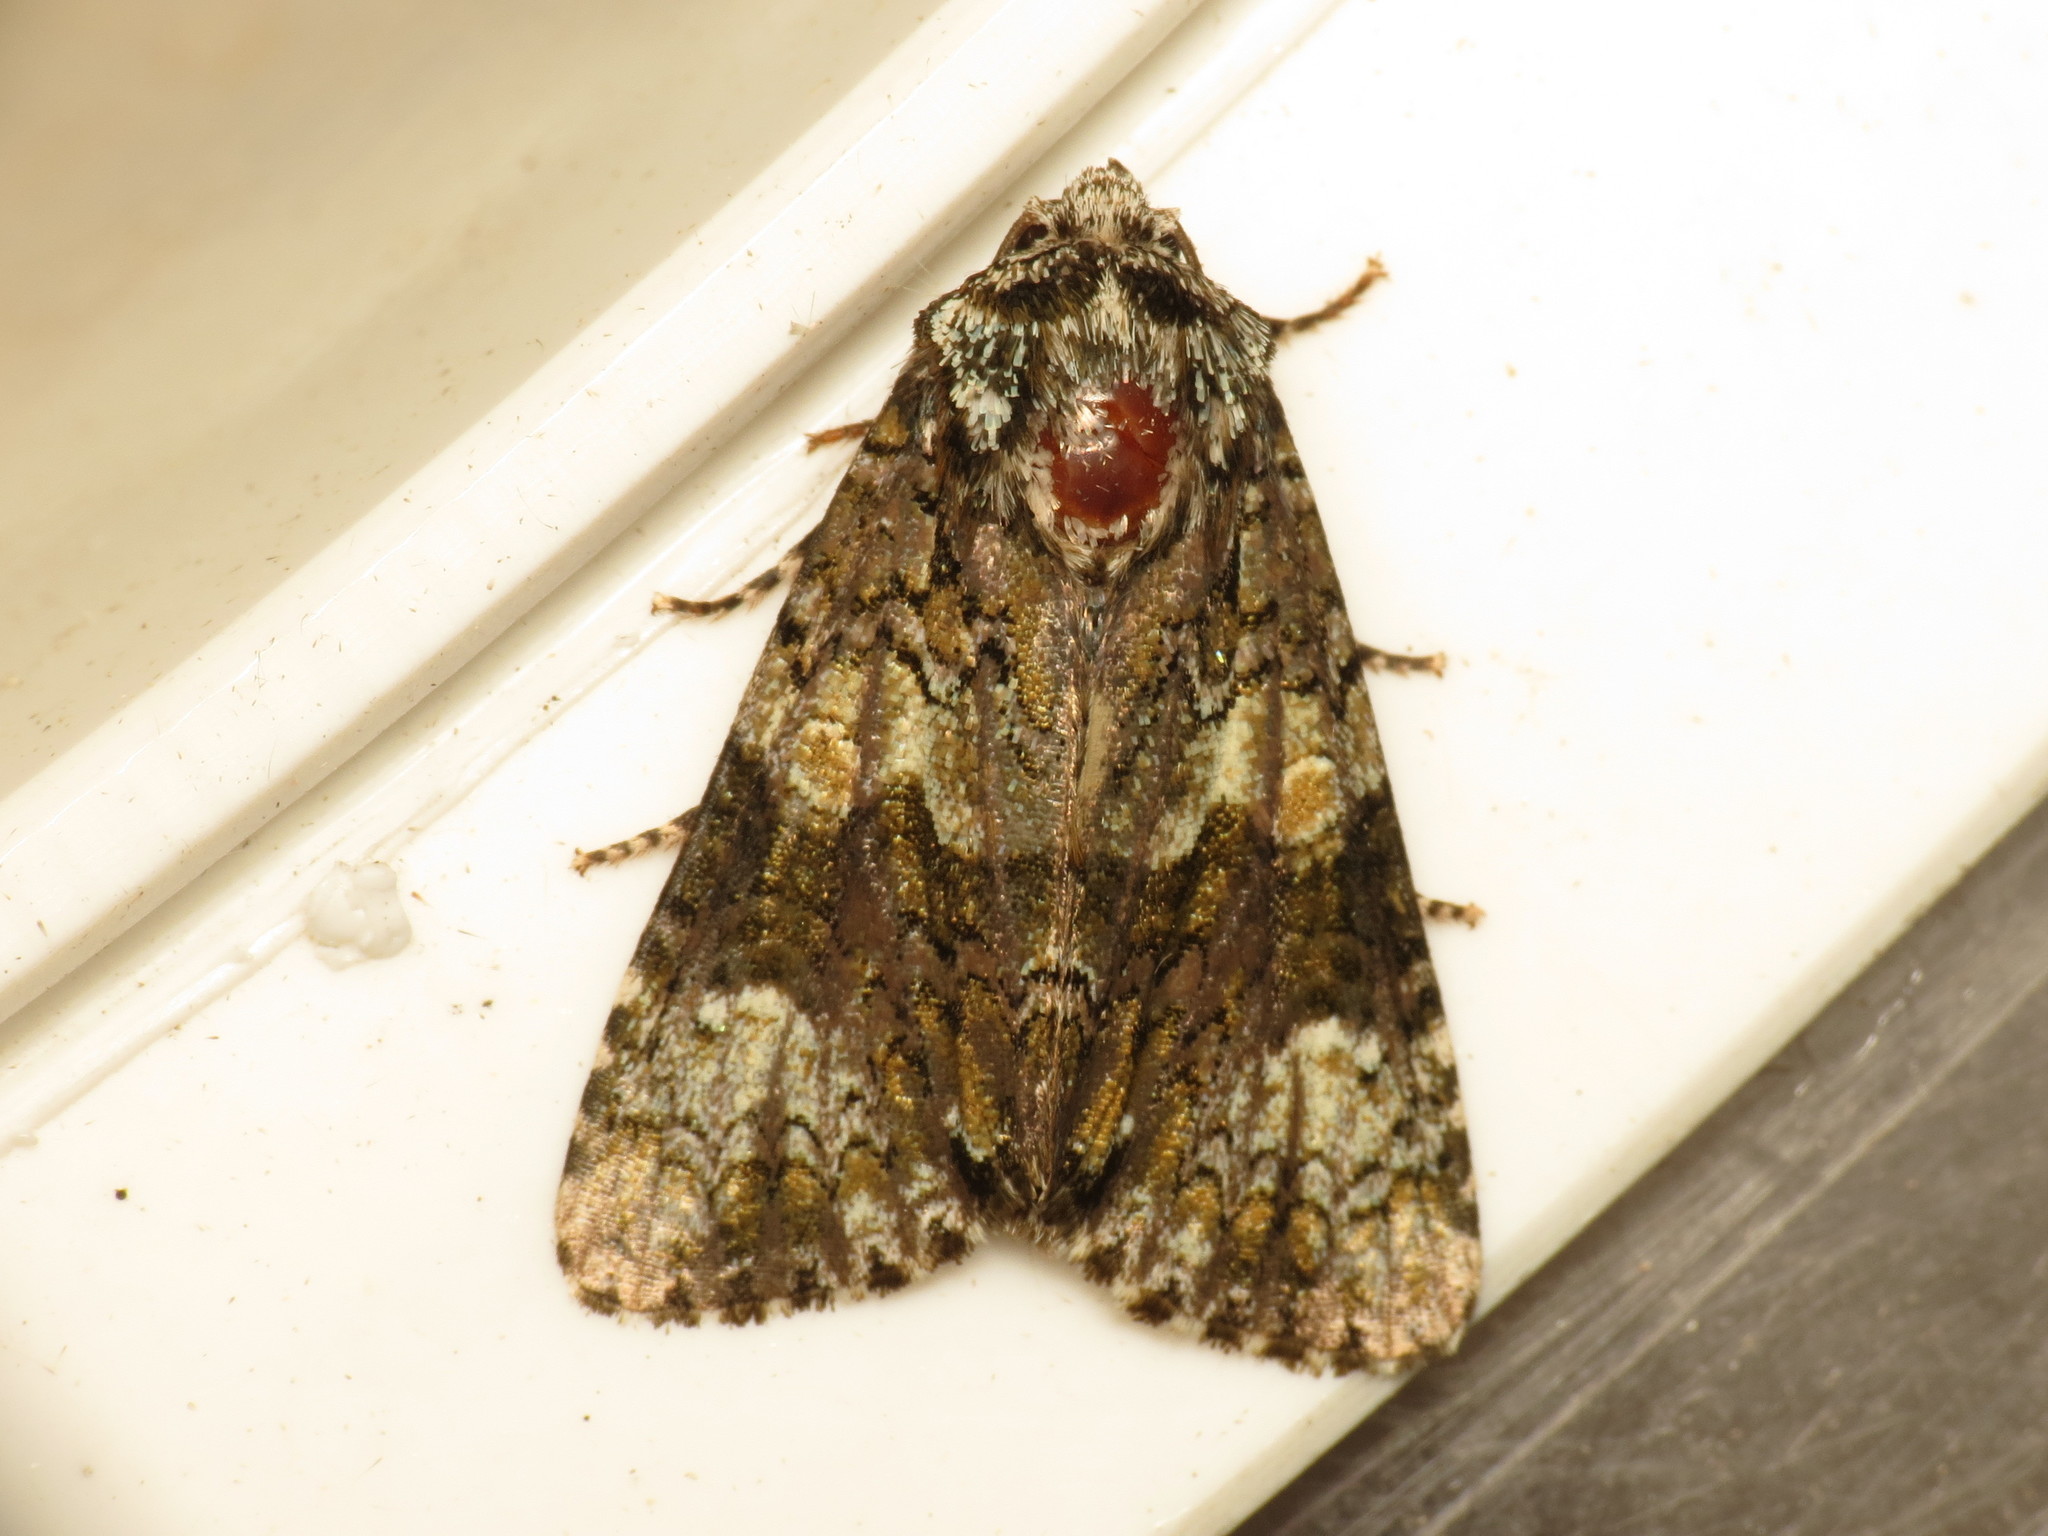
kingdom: Animalia
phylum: Arthropoda
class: Insecta
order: Lepidoptera
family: Noctuidae
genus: Craniophora
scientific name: Craniophora ligustri
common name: Coronet
